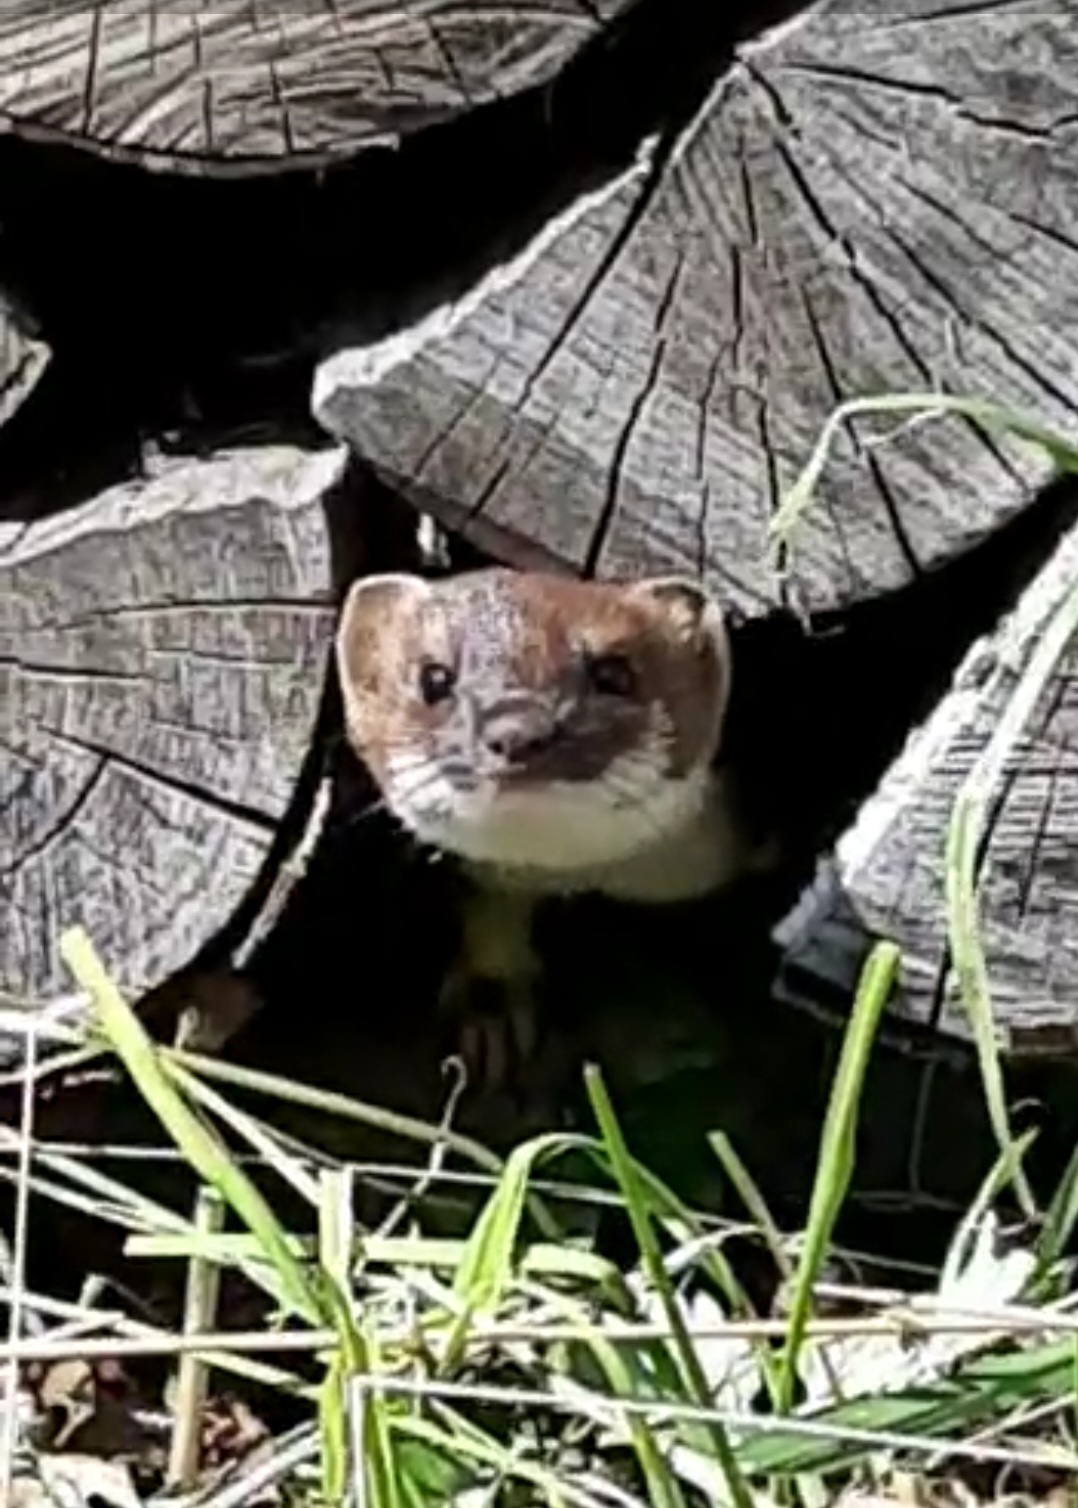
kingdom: Animalia
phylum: Chordata
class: Mammalia
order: Carnivora
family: Mustelidae
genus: Mustela
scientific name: Mustela erminea
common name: Stoat
